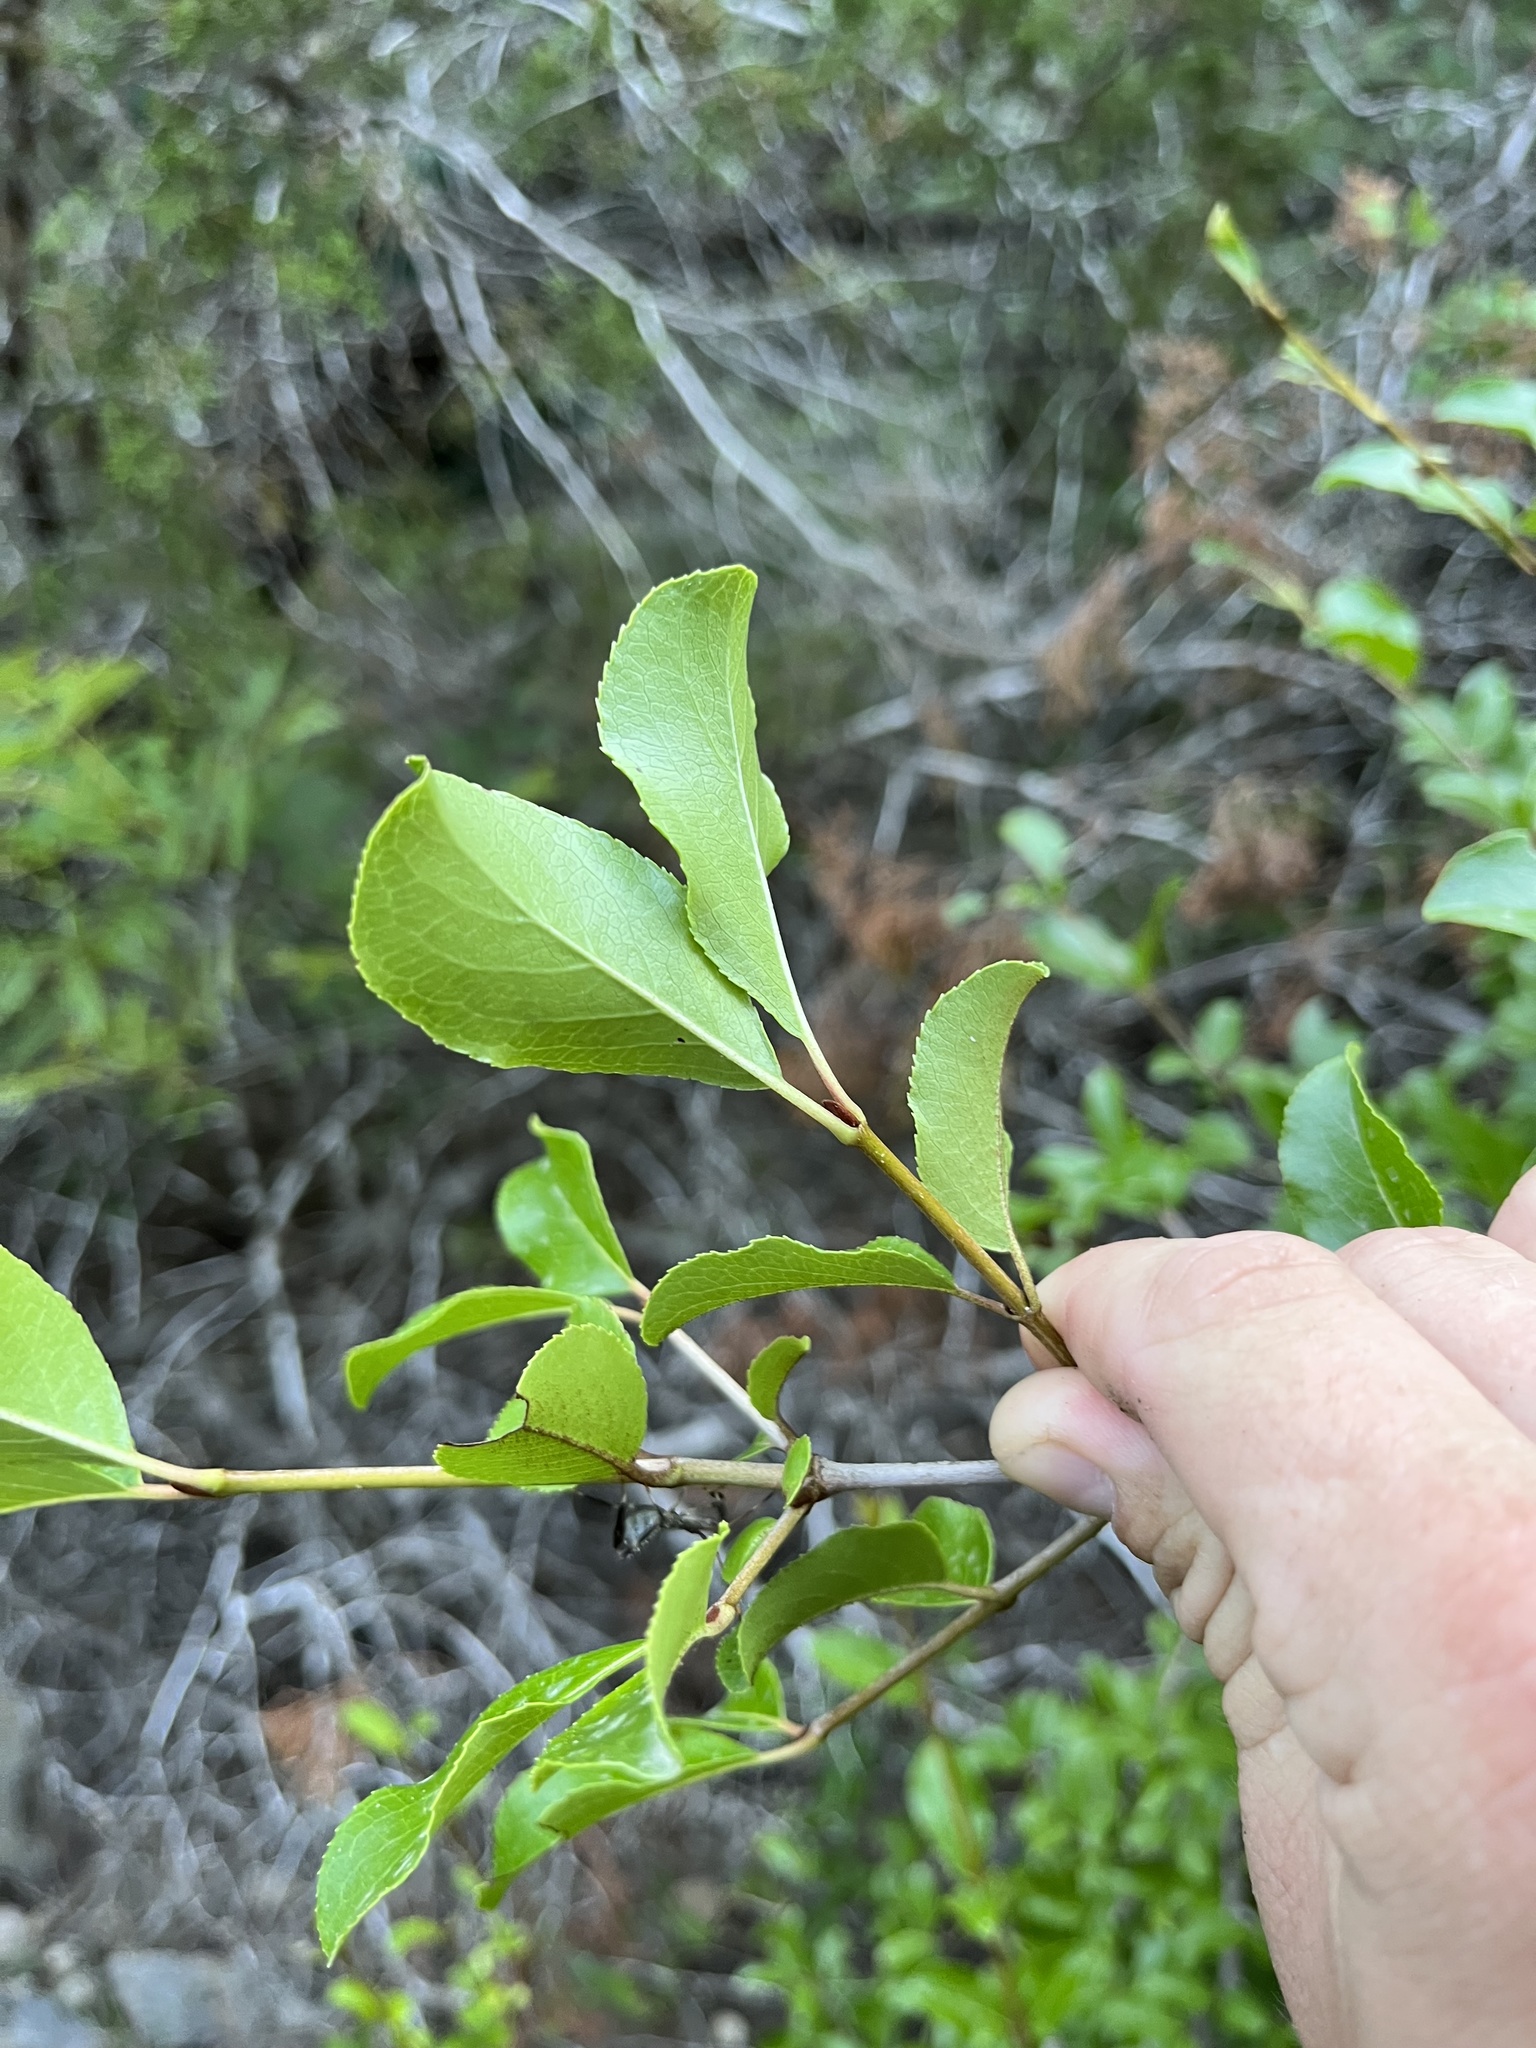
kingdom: Plantae
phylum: Tracheophyta
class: Magnoliopsida
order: Dipsacales
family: Viburnaceae
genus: Viburnum
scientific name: Viburnum rufidulum
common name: Blue haw
